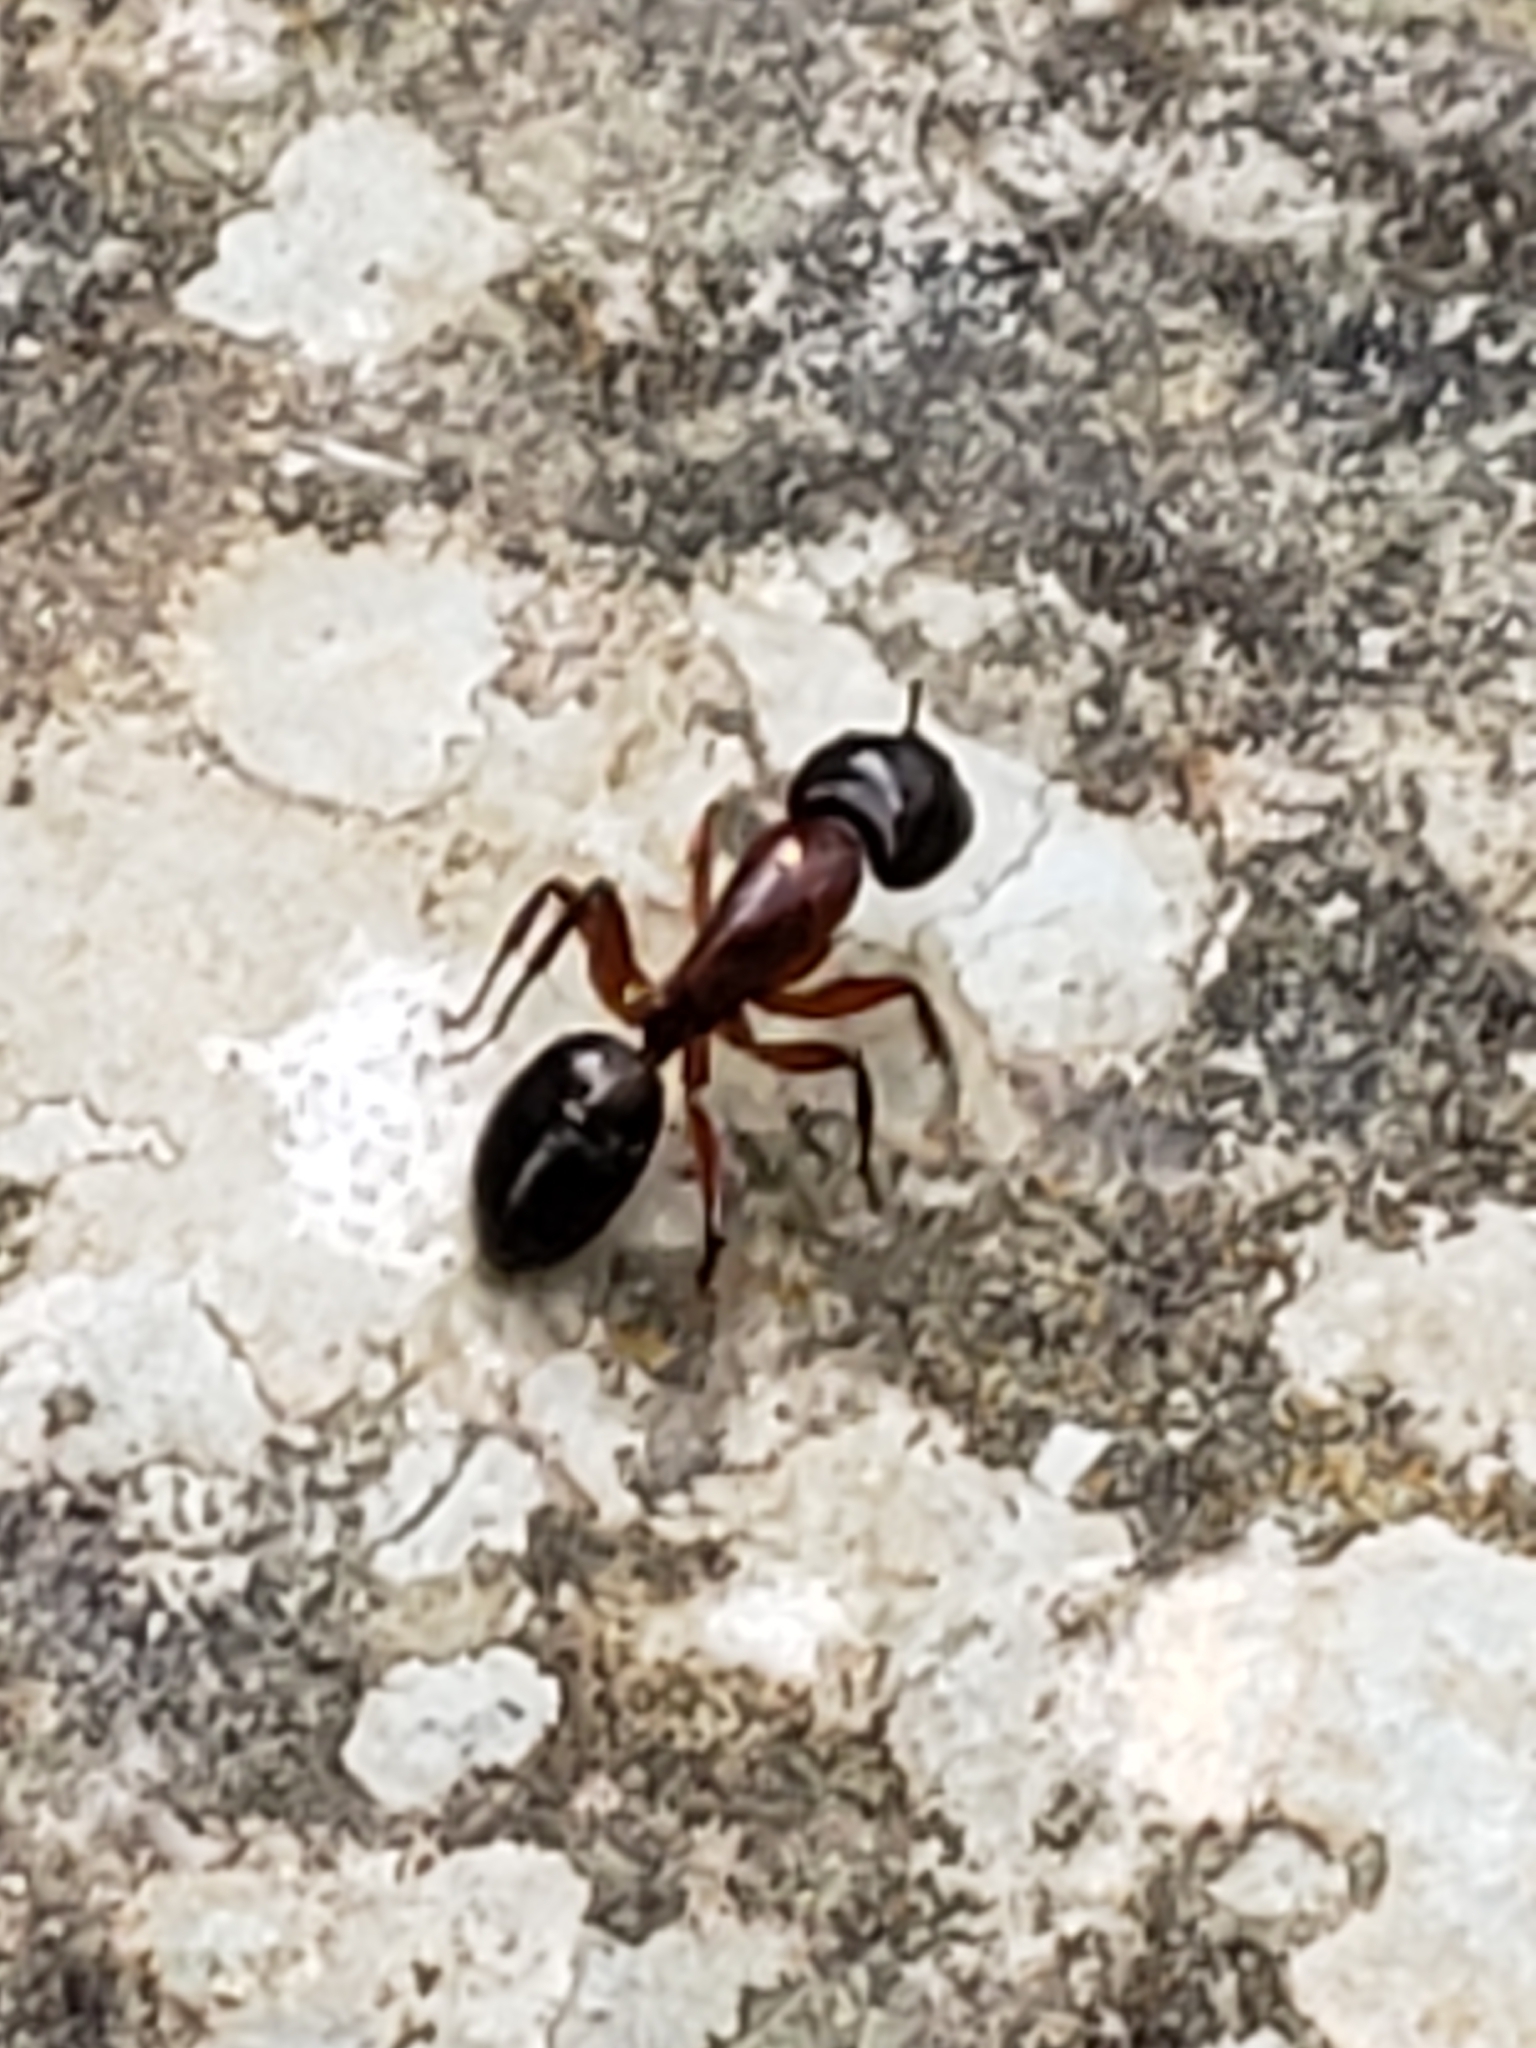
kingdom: Animalia
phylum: Arthropoda
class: Insecta
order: Hymenoptera
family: Formicidae
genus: Camponotus
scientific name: Camponotus texanus
